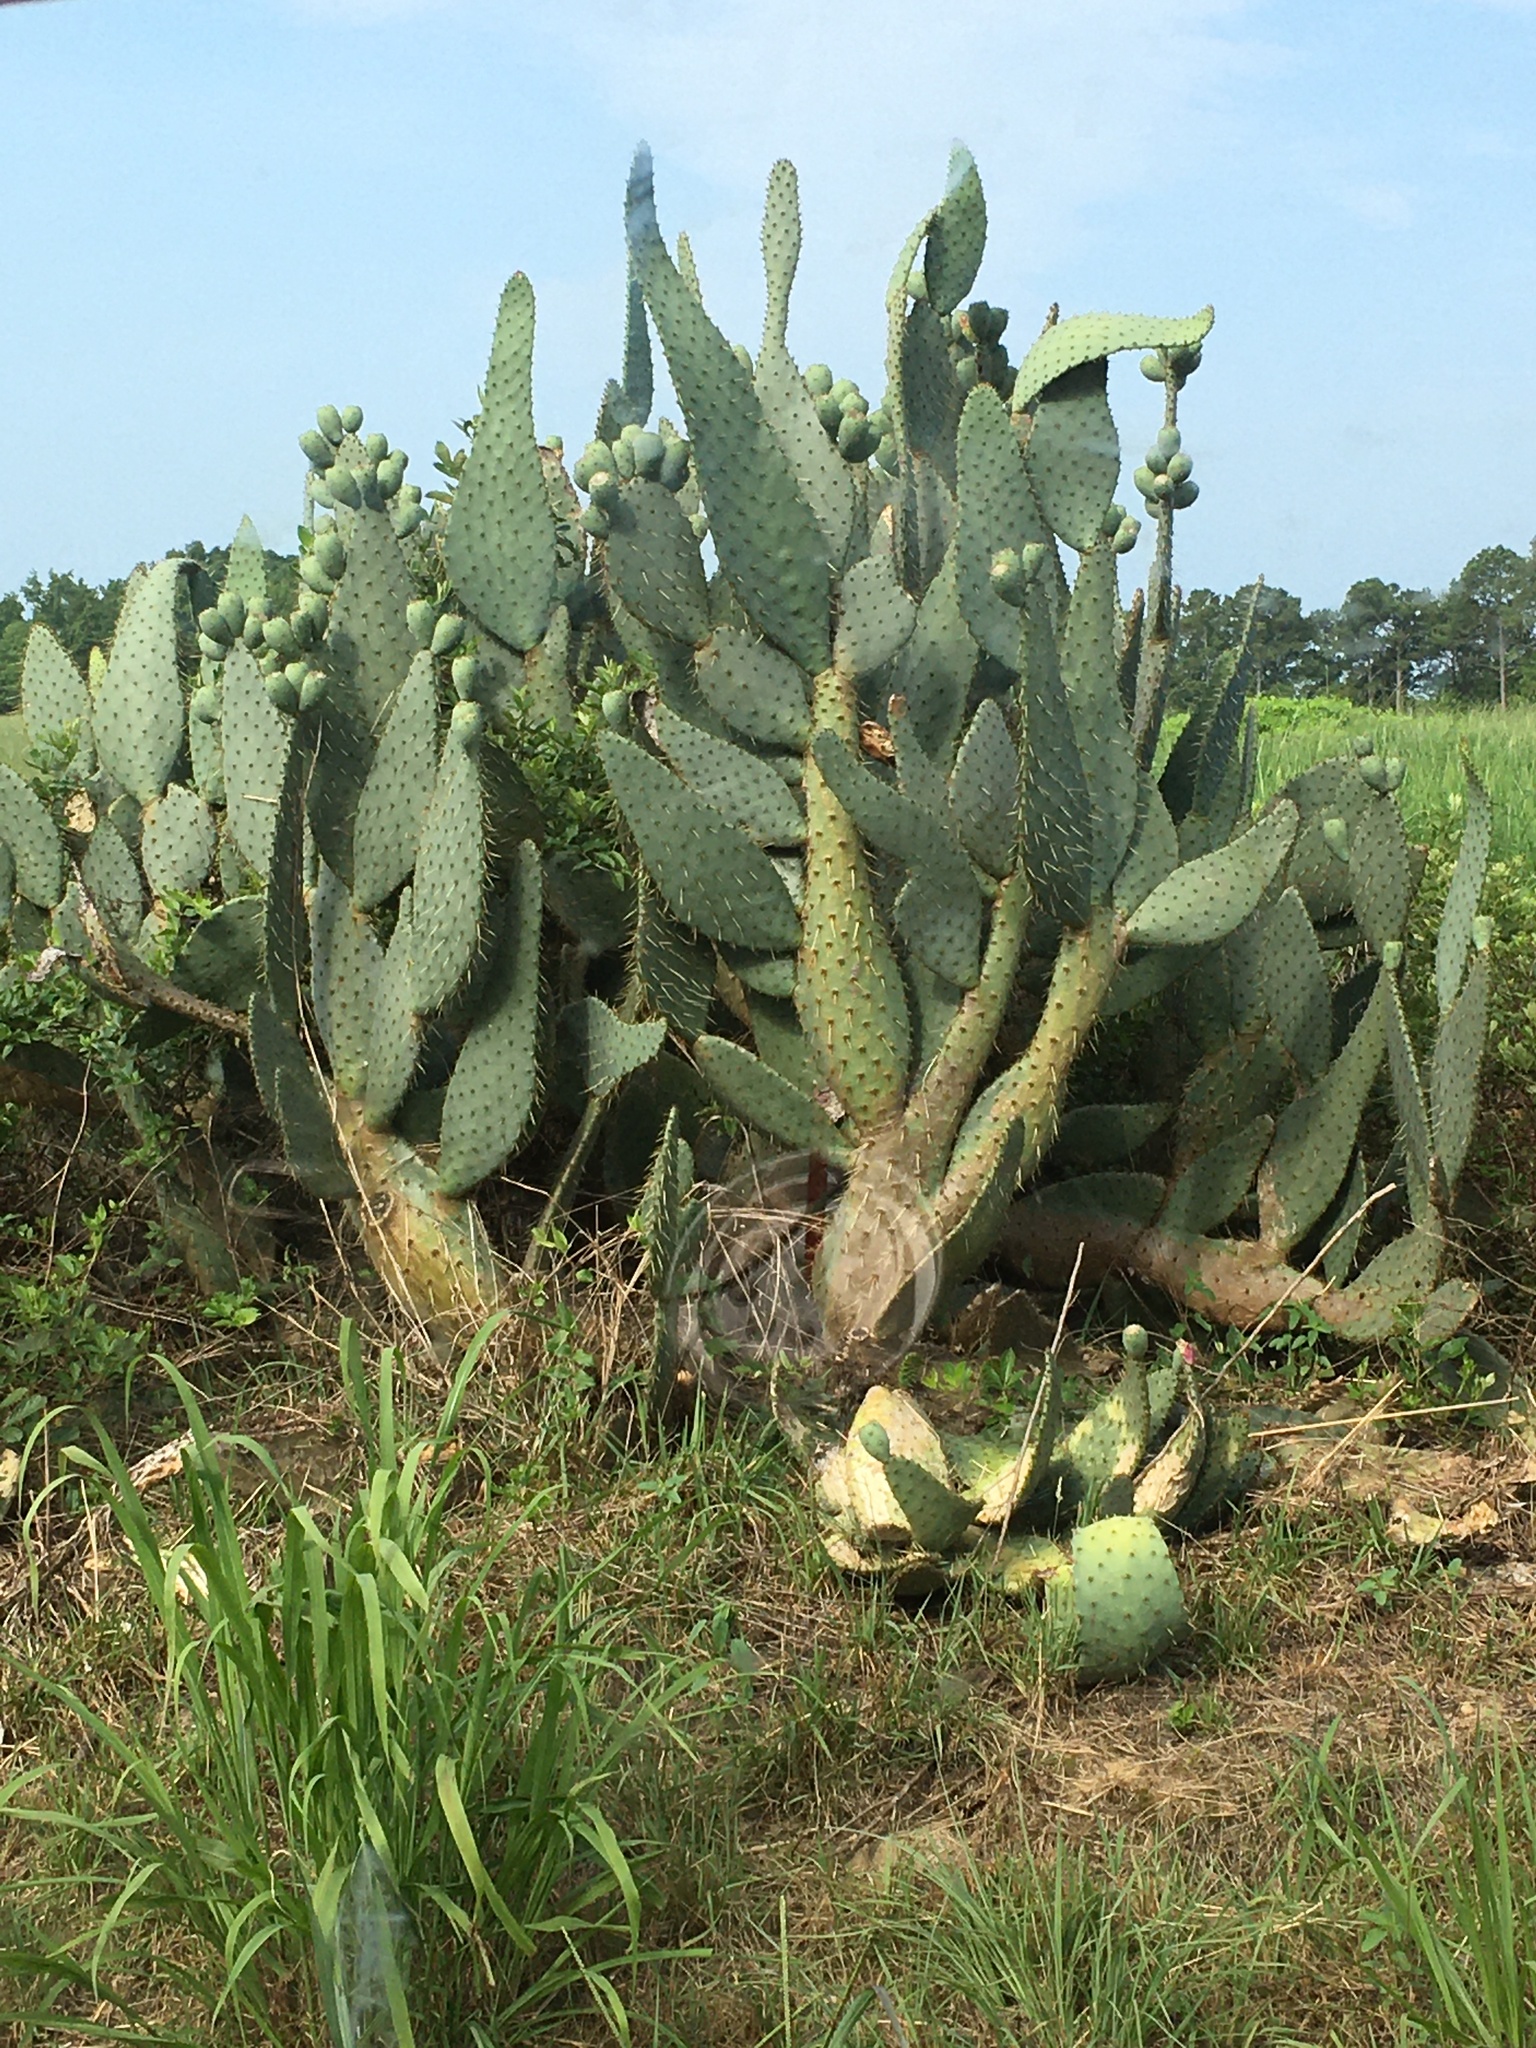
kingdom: Plantae
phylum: Tracheophyta
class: Magnoliopsida
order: Caryophyllales
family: Cactaceae
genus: Opuntia
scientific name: Opuntia engelmannii
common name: Cactus-apple
